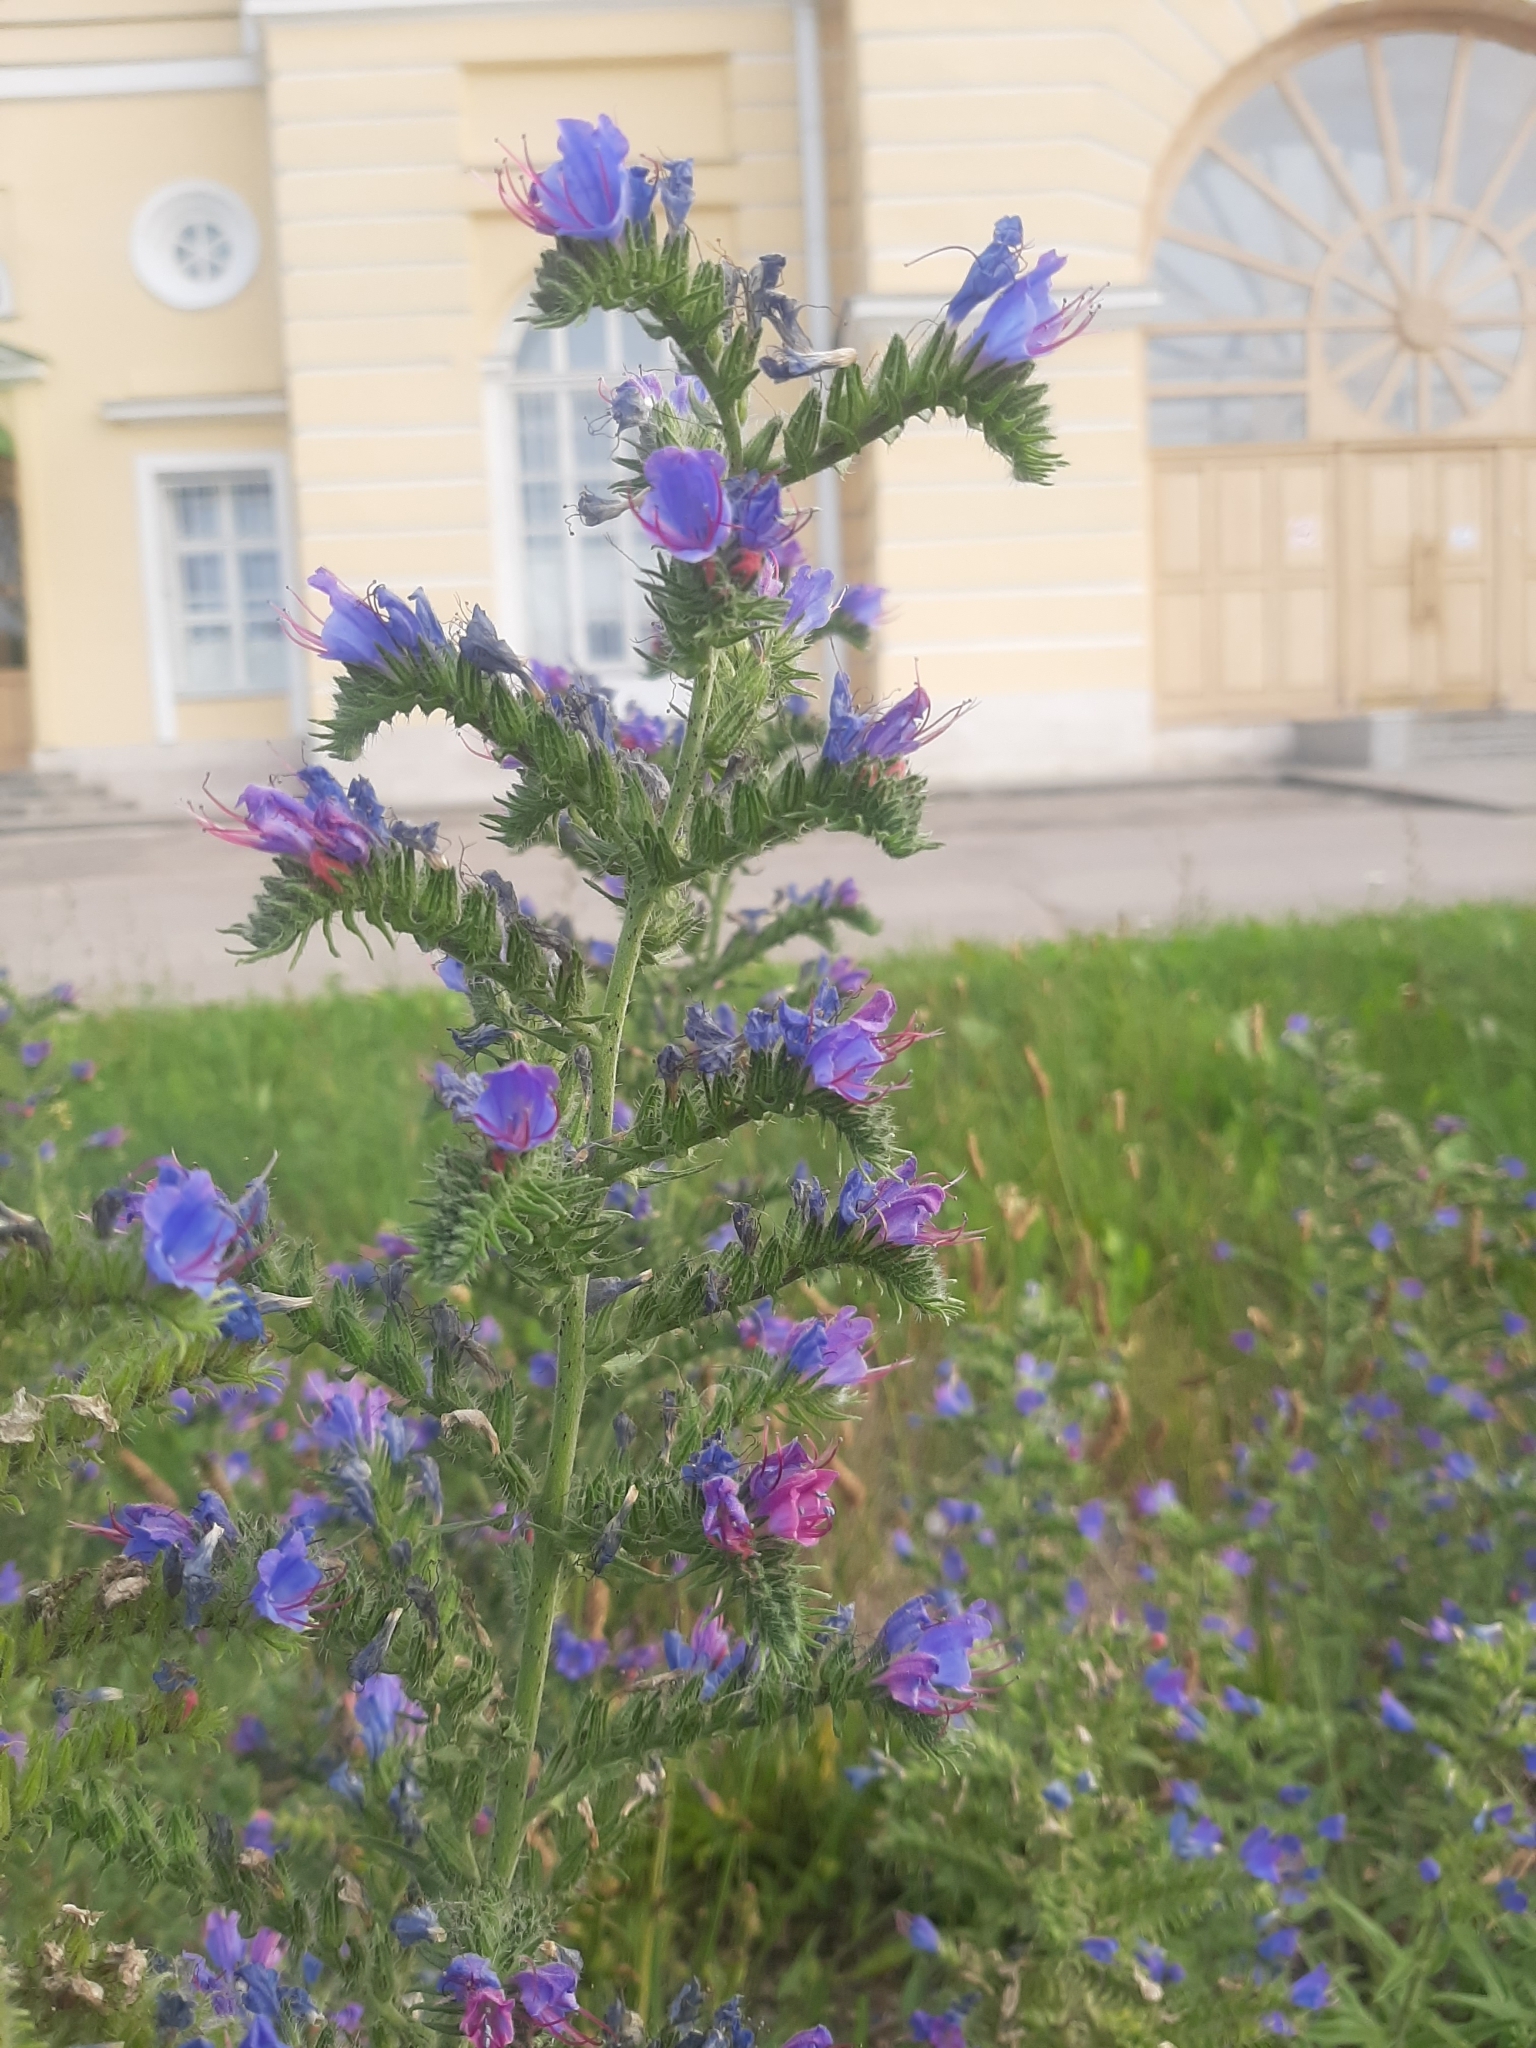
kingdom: Plantae
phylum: Tracheophyta
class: Magnoliopsida
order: Boraginales
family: Boraginaceae
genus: Echium
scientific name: Echium vulgare
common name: Common viper's bugloss
